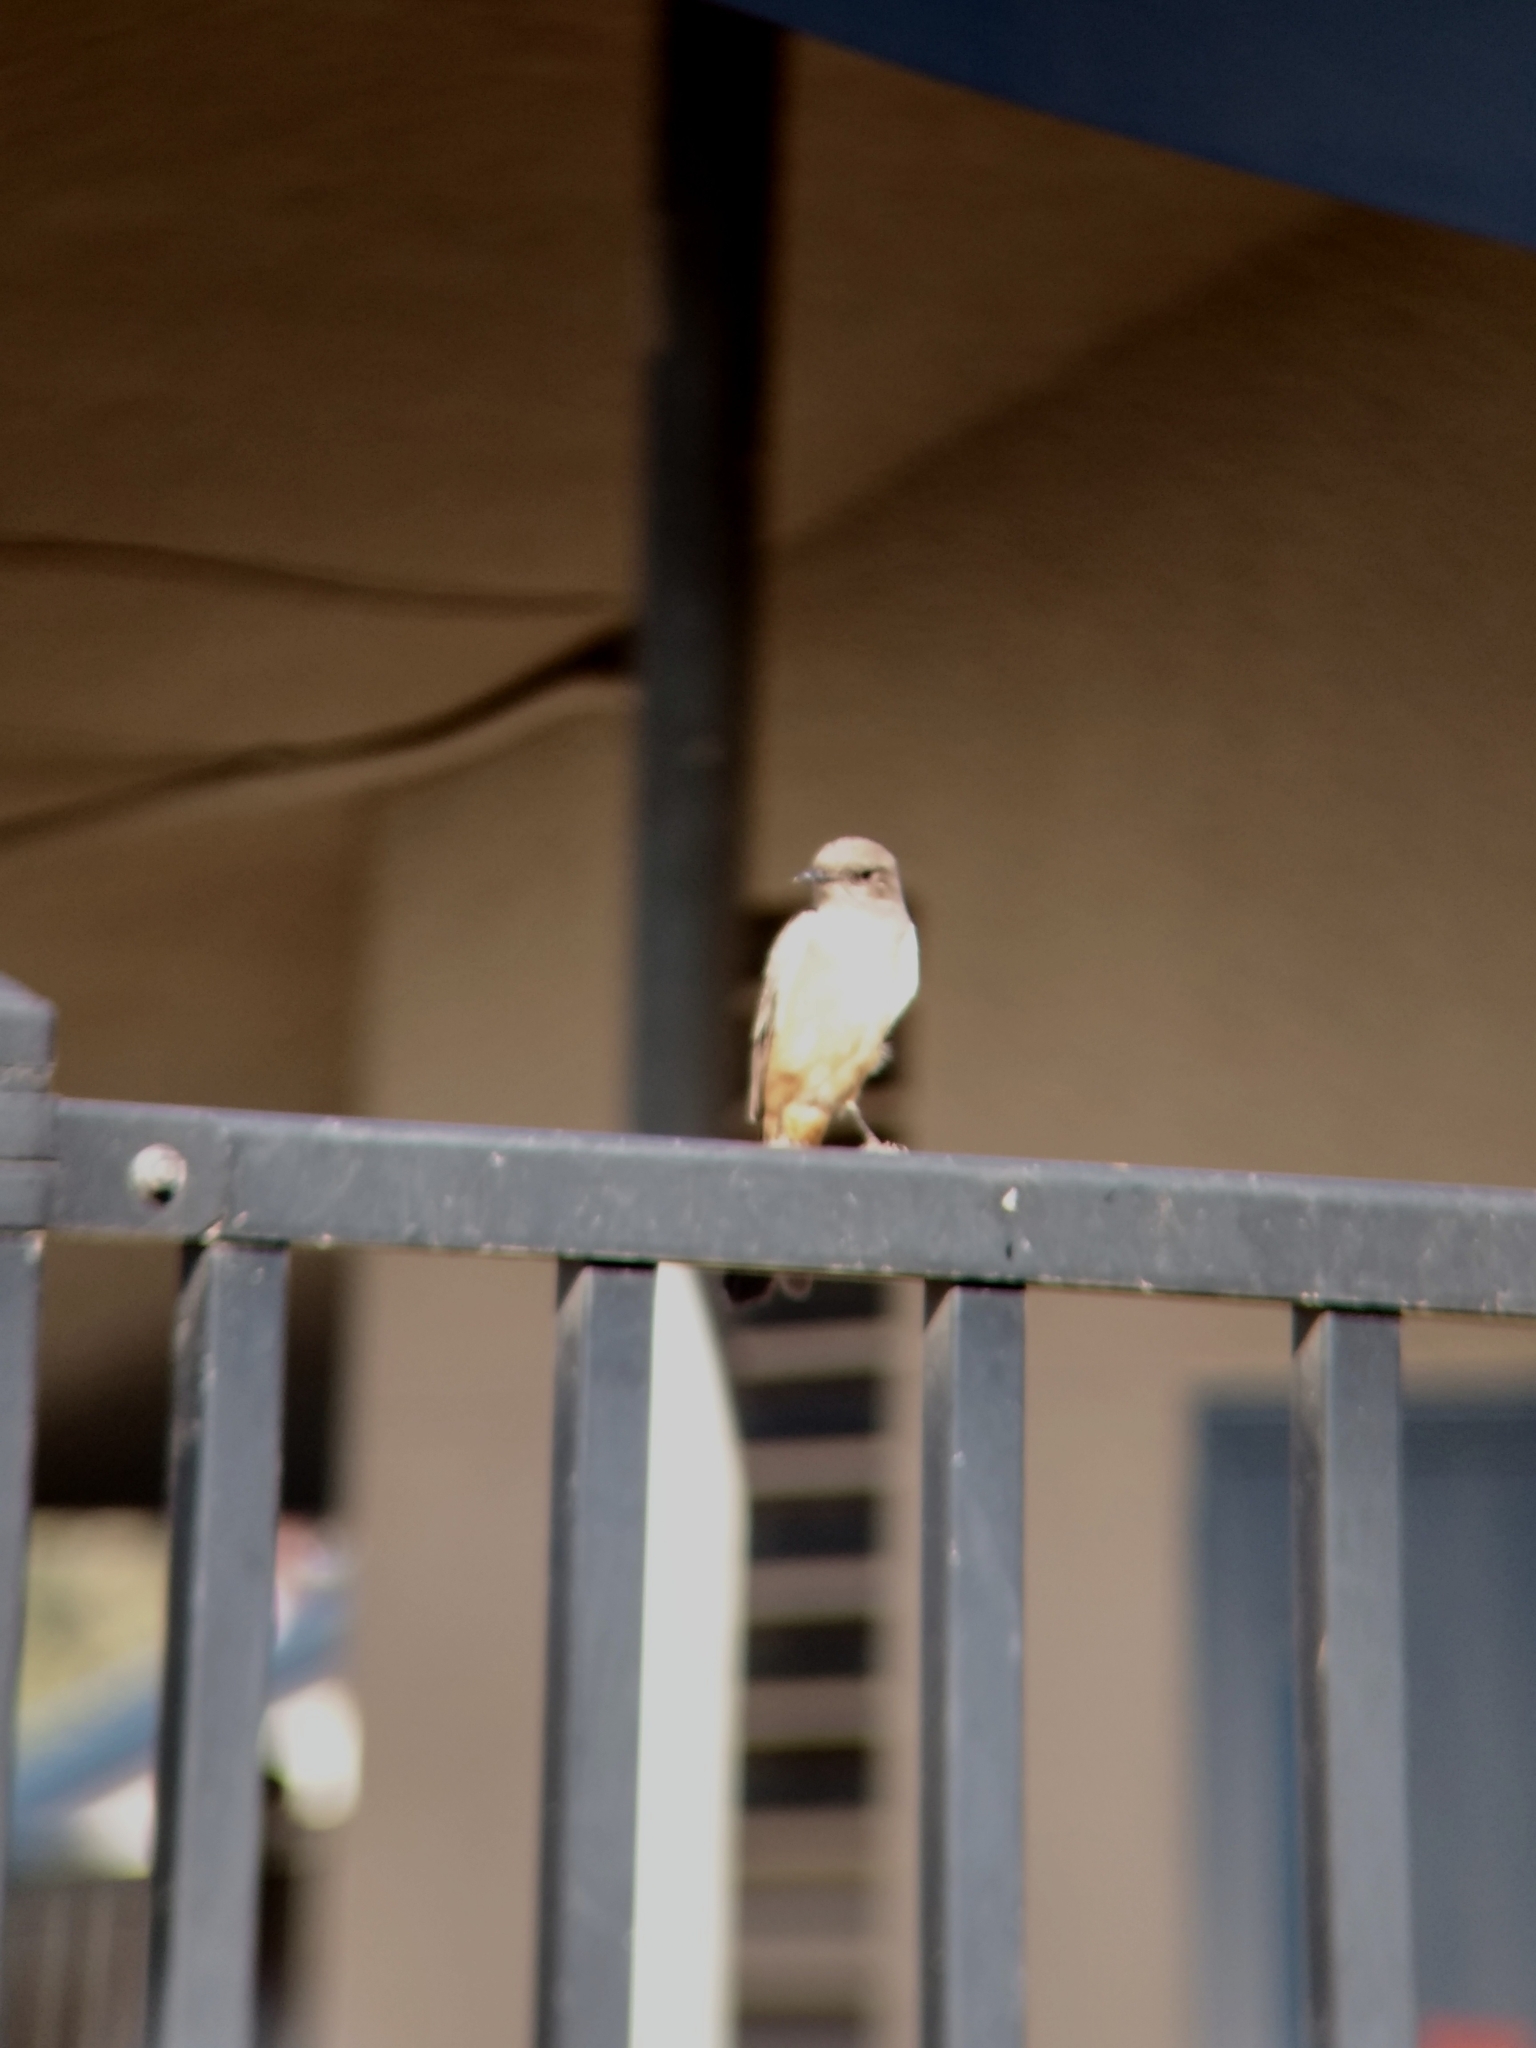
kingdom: Animalia
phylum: Chordata
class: Aves
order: Passeriformes
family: Tyrannidae
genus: Sayornis
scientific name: Sayornis saya
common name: Say's phoebe
